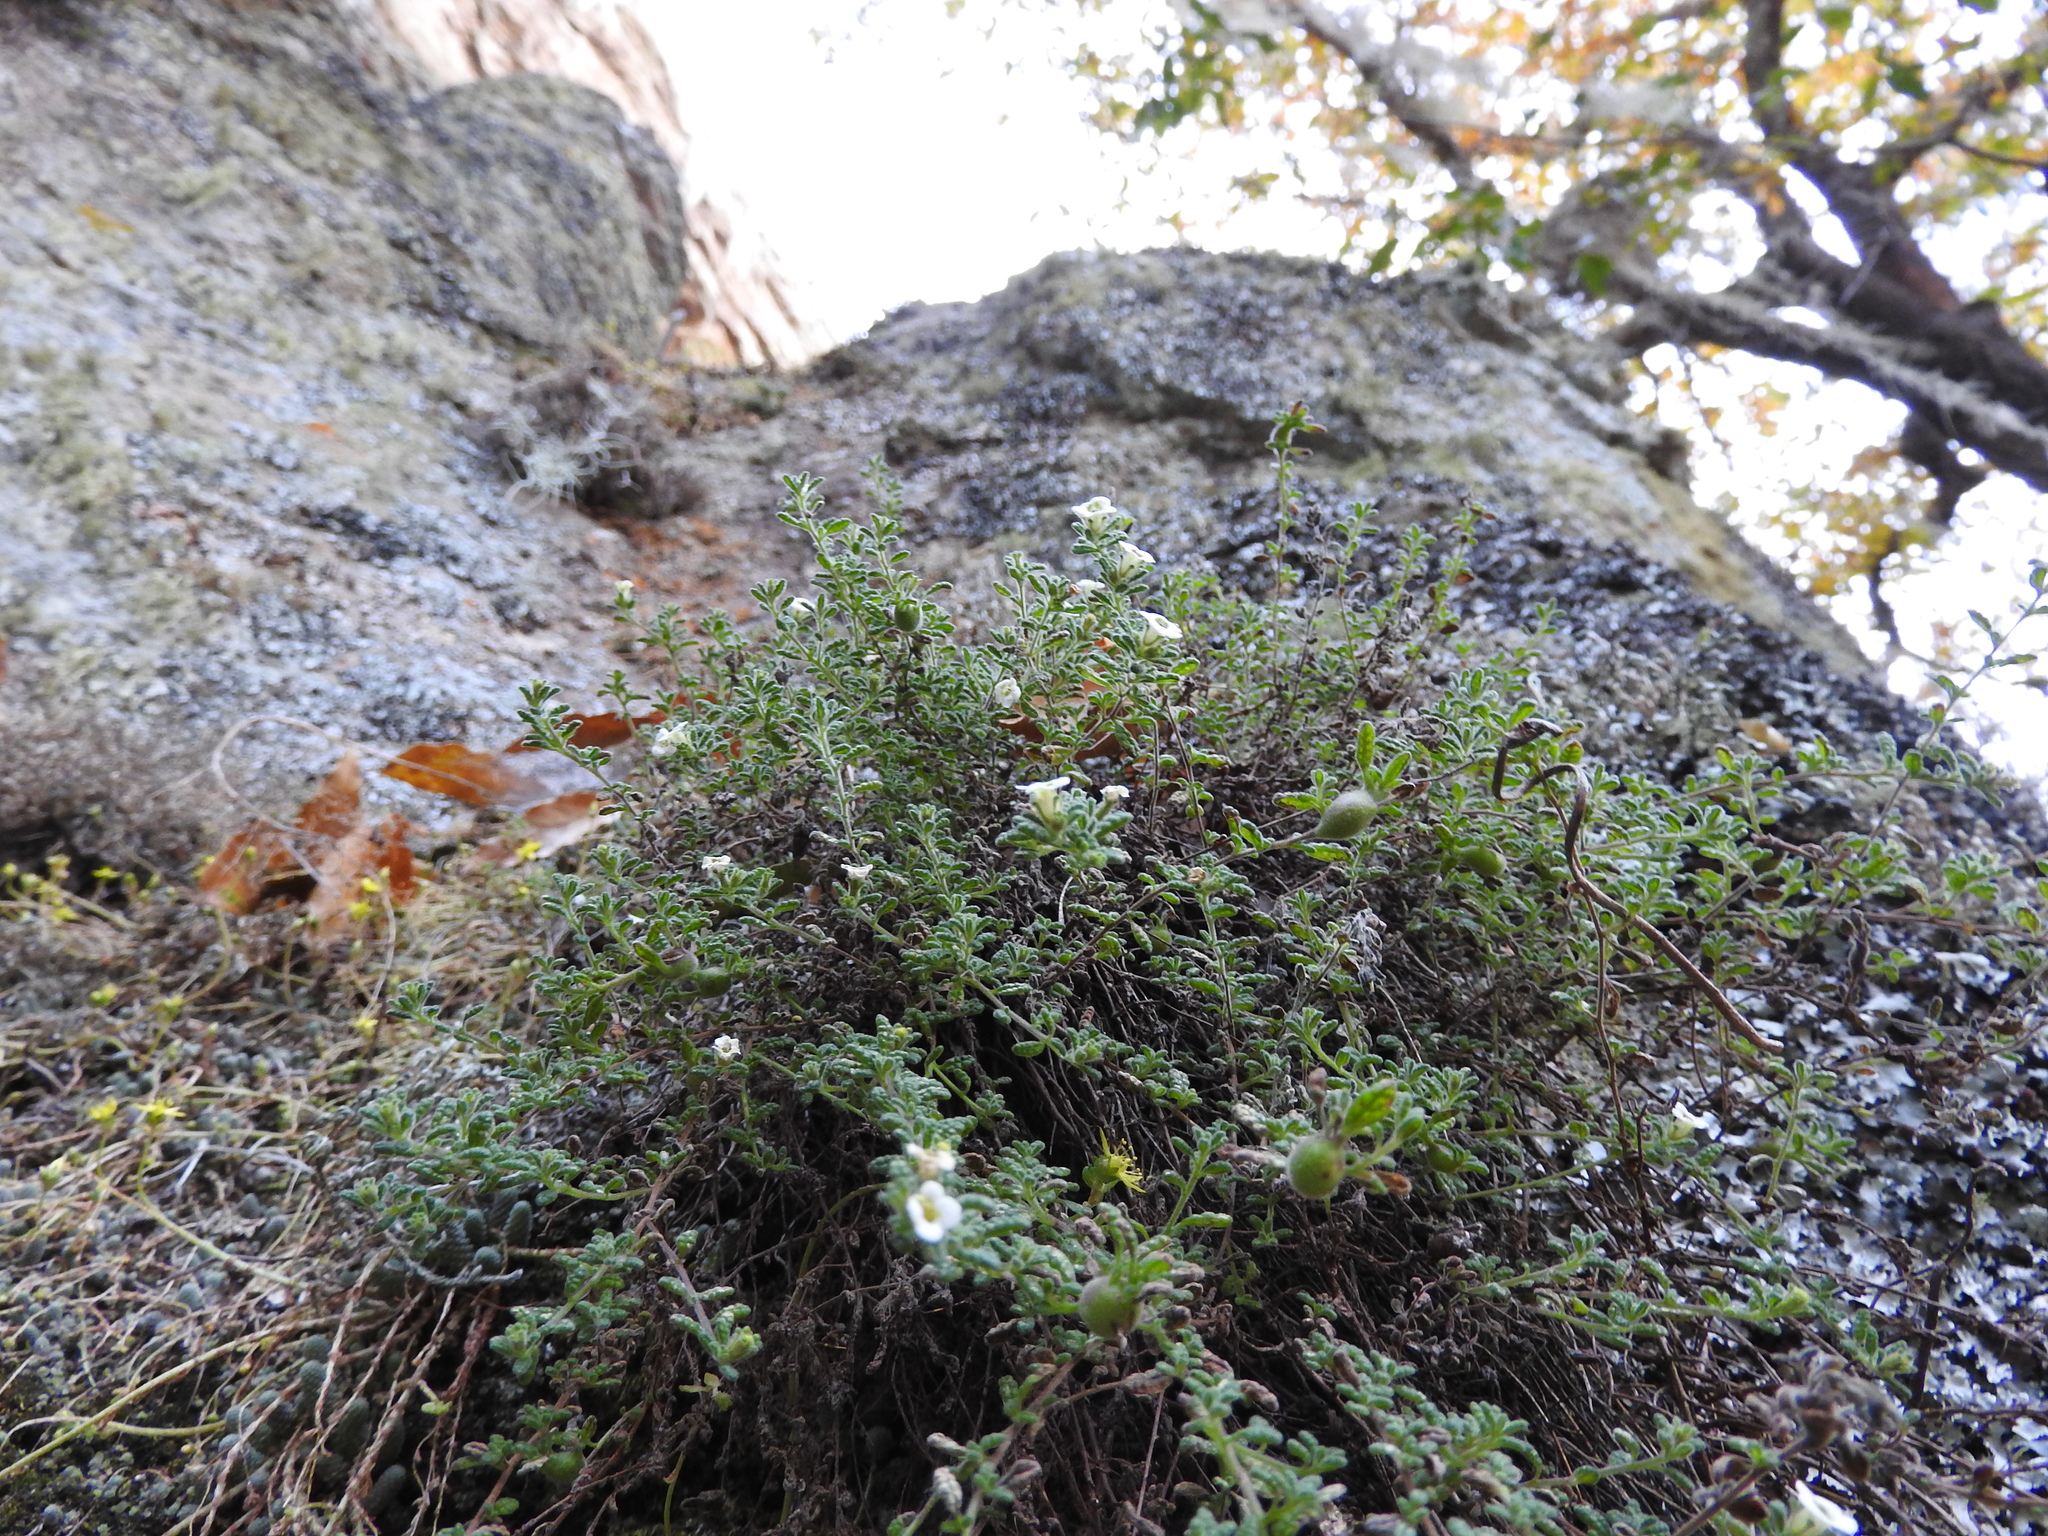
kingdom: Plantae
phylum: Tracheophyta
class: Magnoliopsida
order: Boraginales
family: Namaceae
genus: Nama
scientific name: Nama origanifolia
